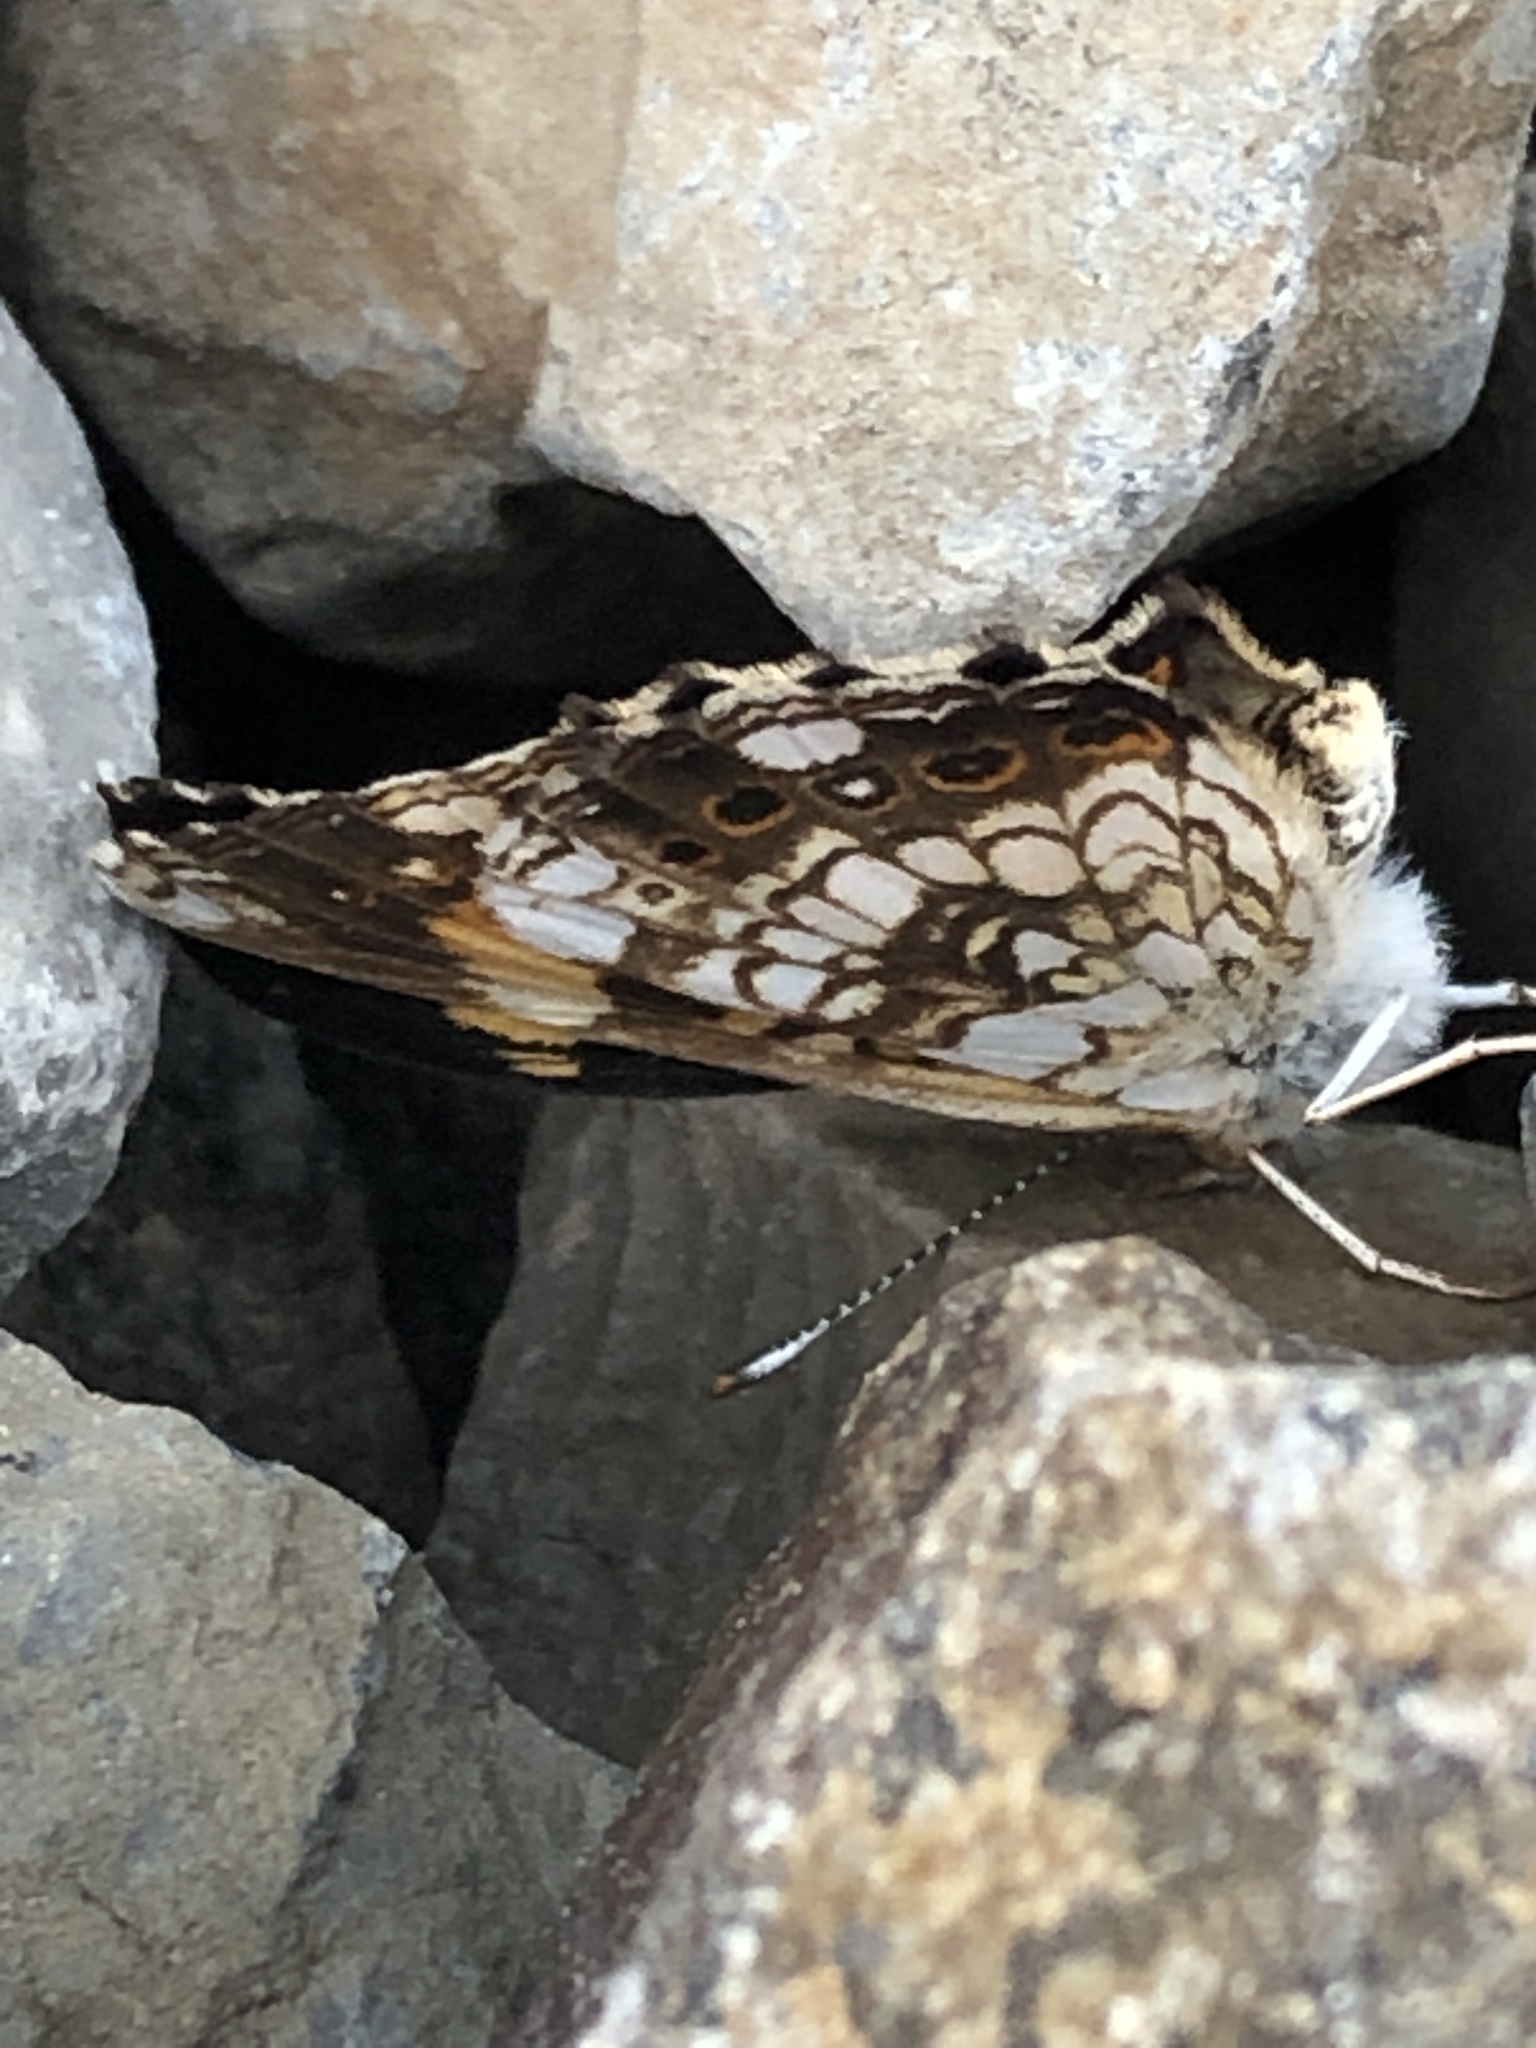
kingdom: Animalia
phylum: Arthropoda
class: Insecta
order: Lepidoptera
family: Nymphalidae
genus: Chlosyne
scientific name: Chlosyne nycteis
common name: Silvery checkerspot
